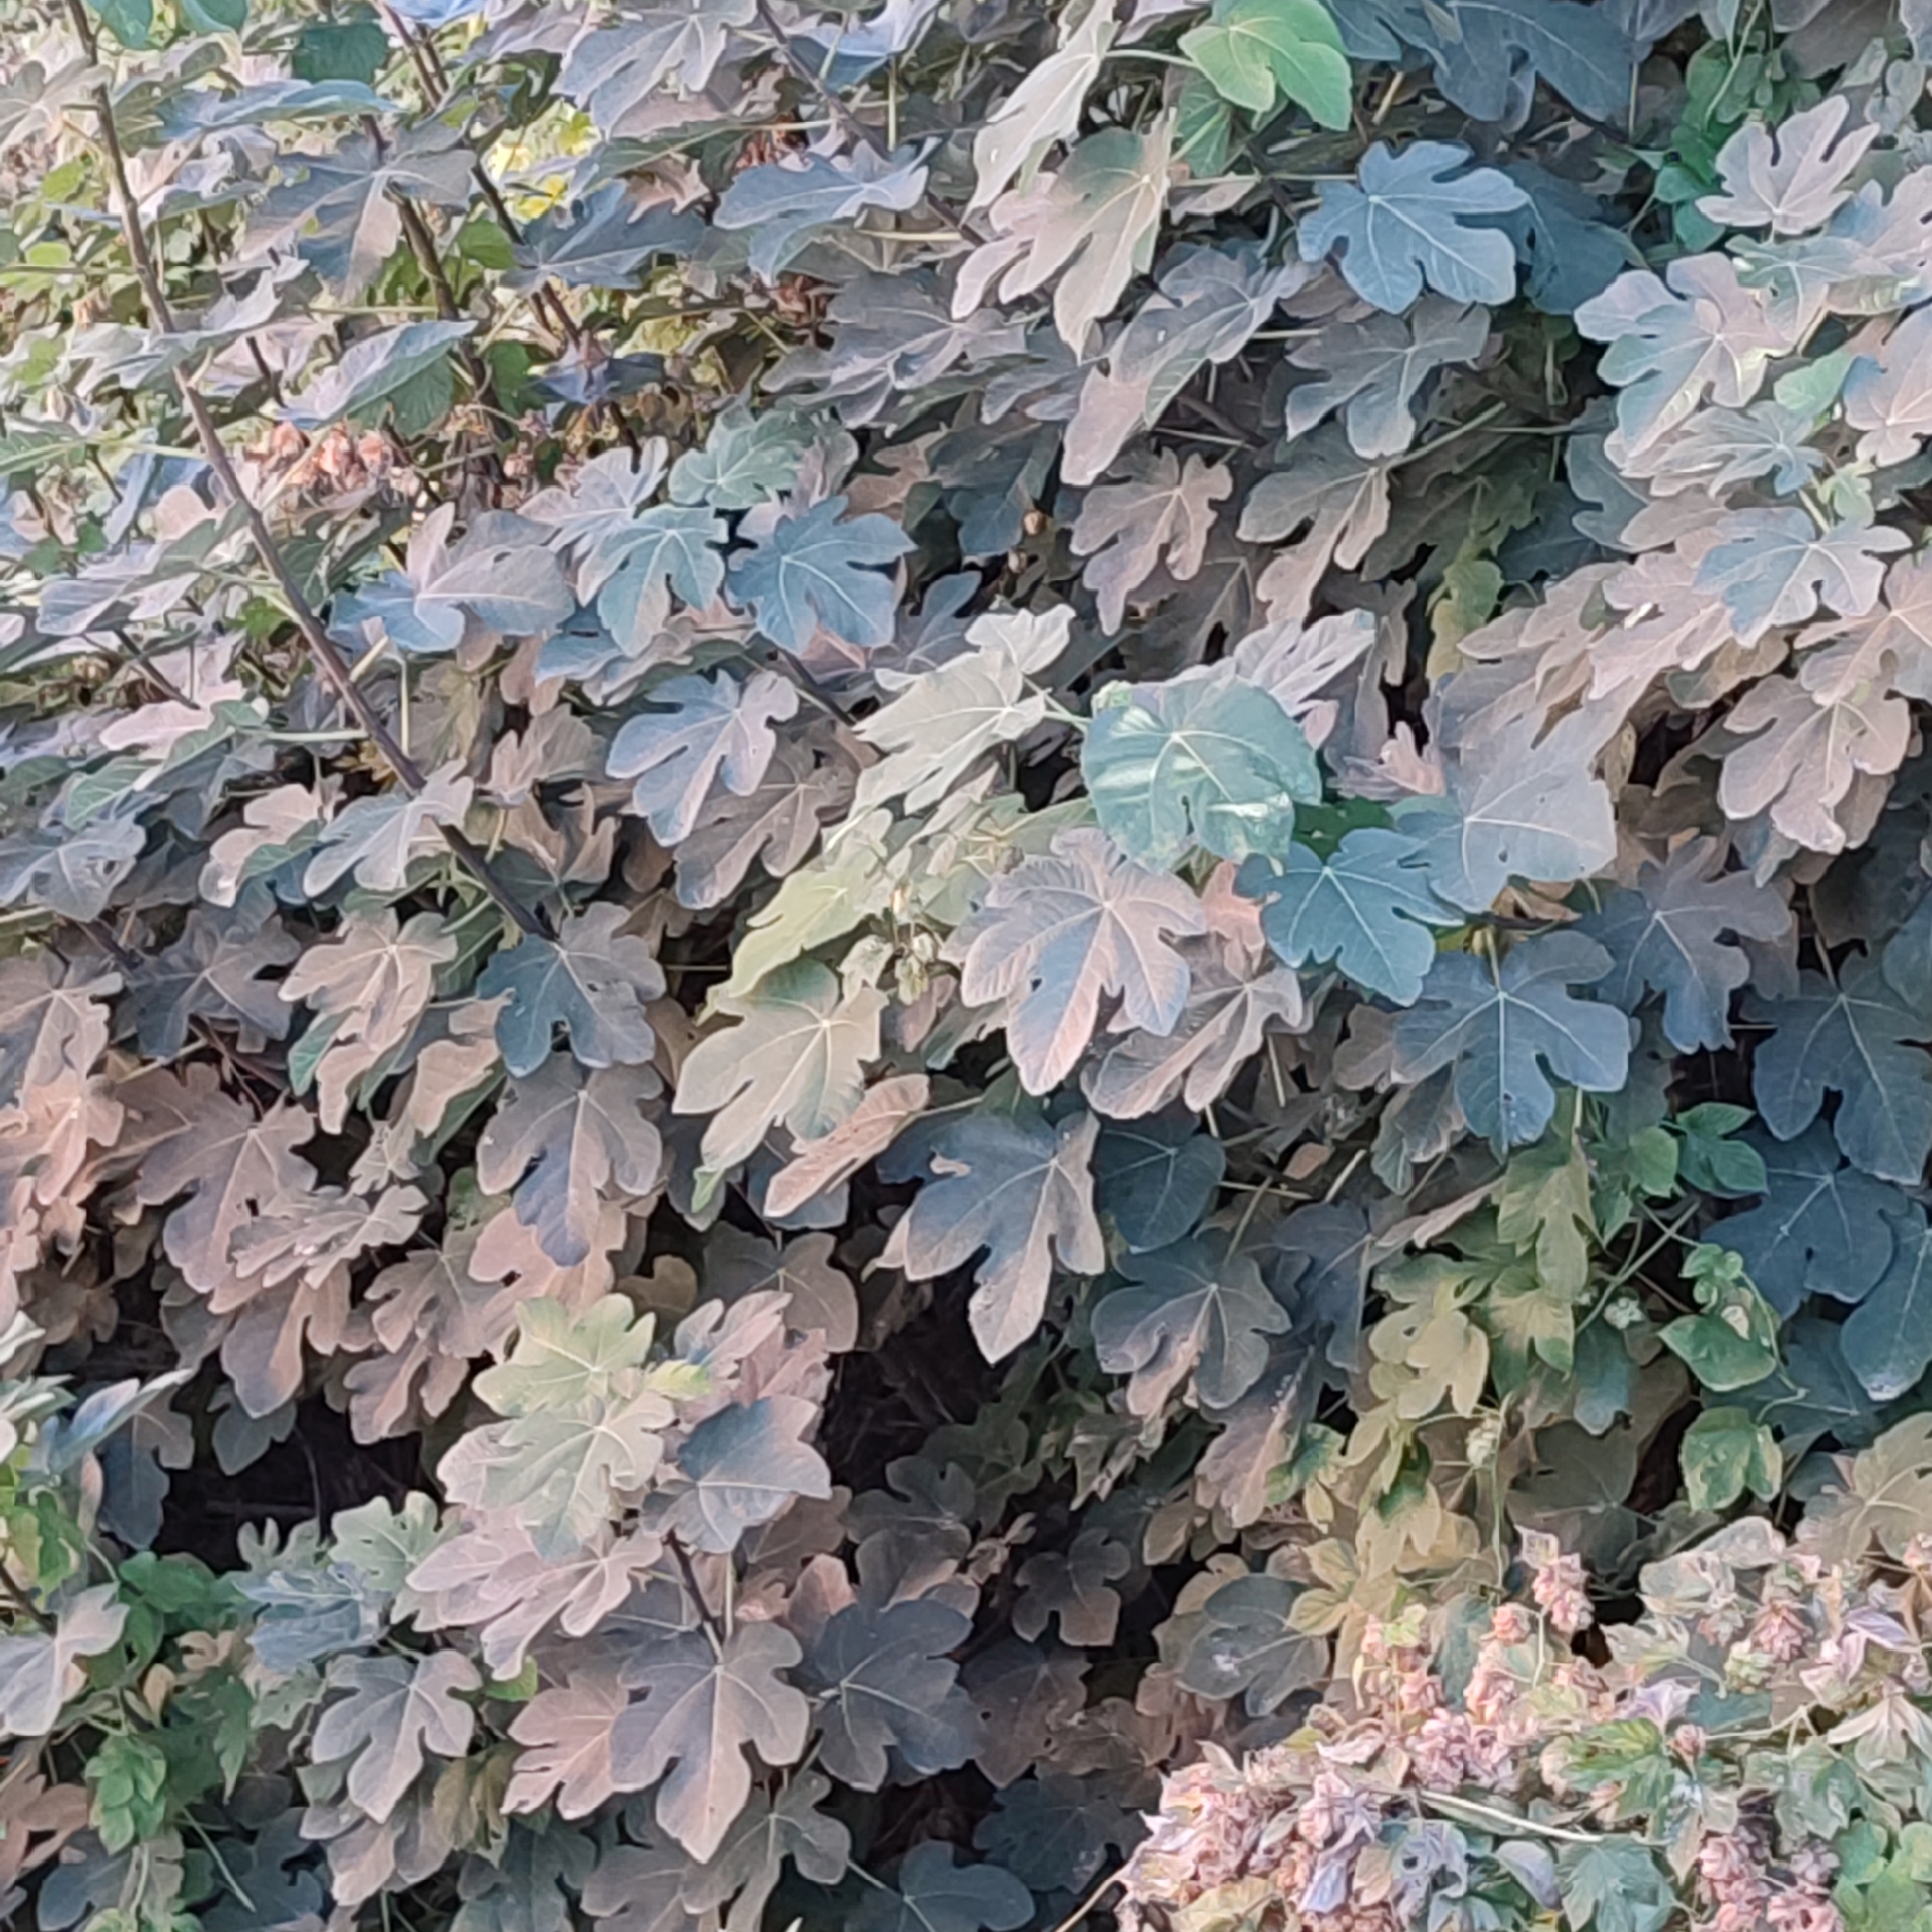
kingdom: Plantae
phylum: Tracheophyta
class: Magnoliopsida
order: Rosales
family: Moraceae
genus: Ficus
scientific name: Ficus carica
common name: Fig
